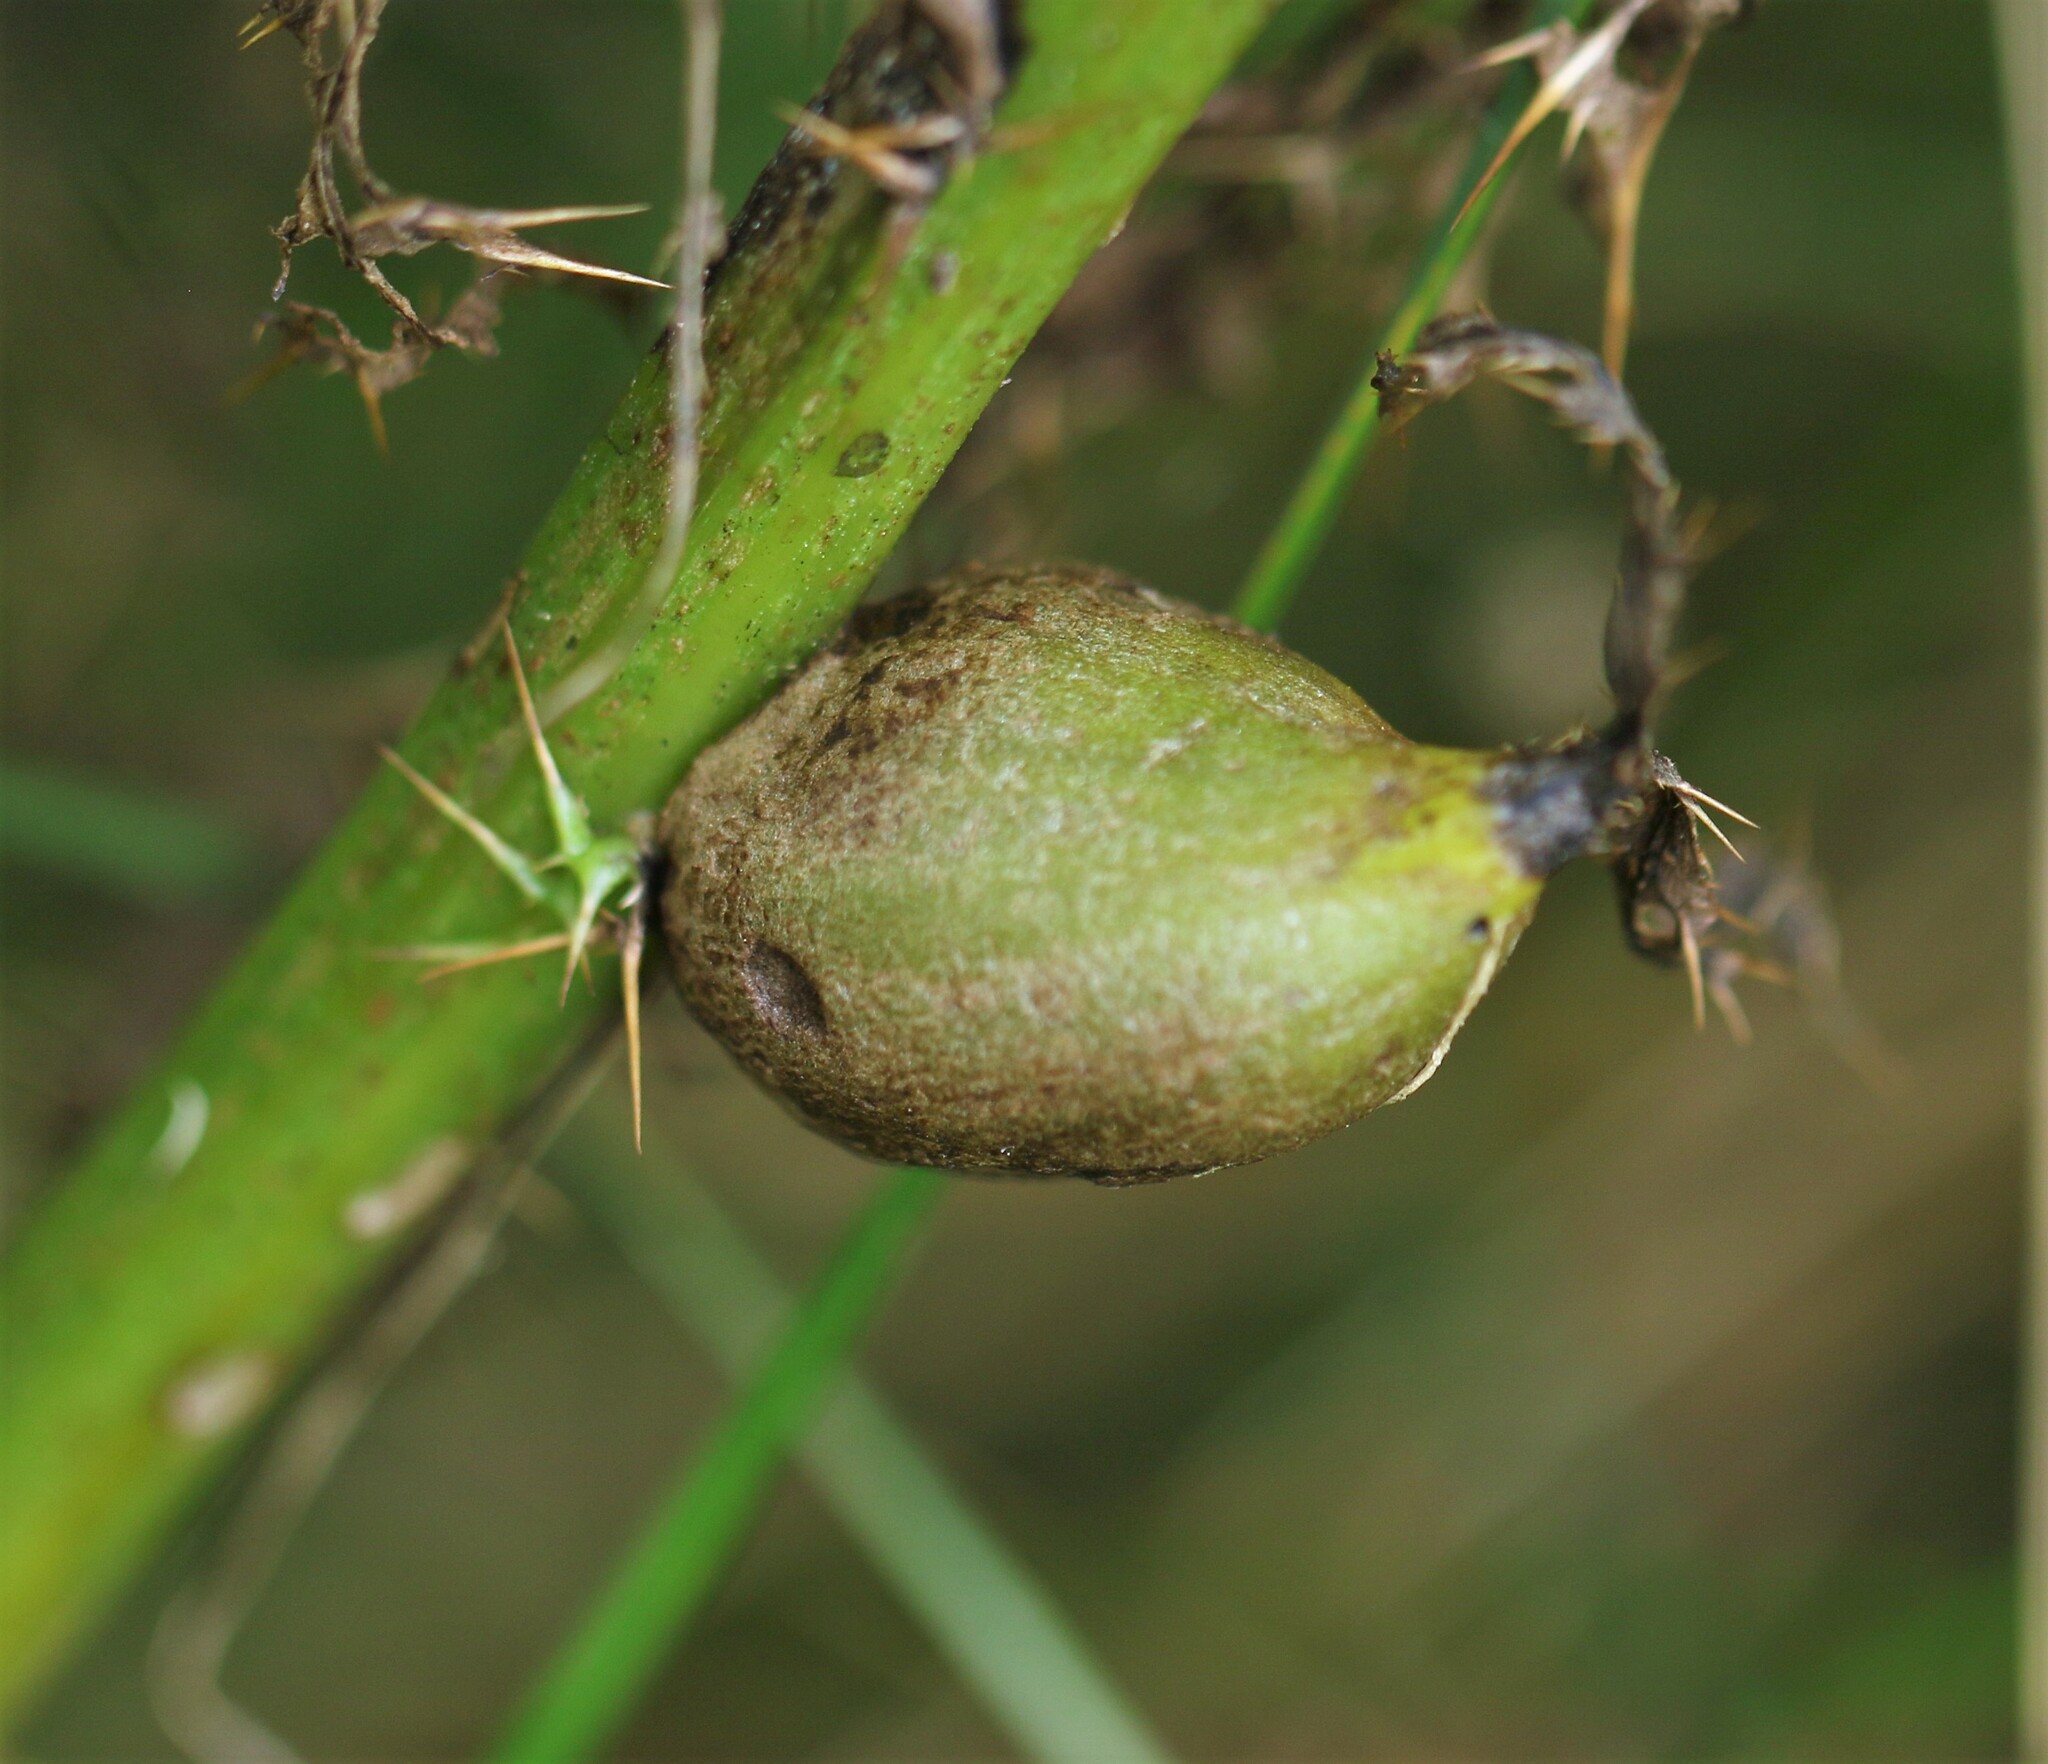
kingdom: Animalia
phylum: Arthropoda
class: Insecta
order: Diptera
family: Tephritidae
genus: Urophora
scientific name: Urophora cardui
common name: Fruit fly
